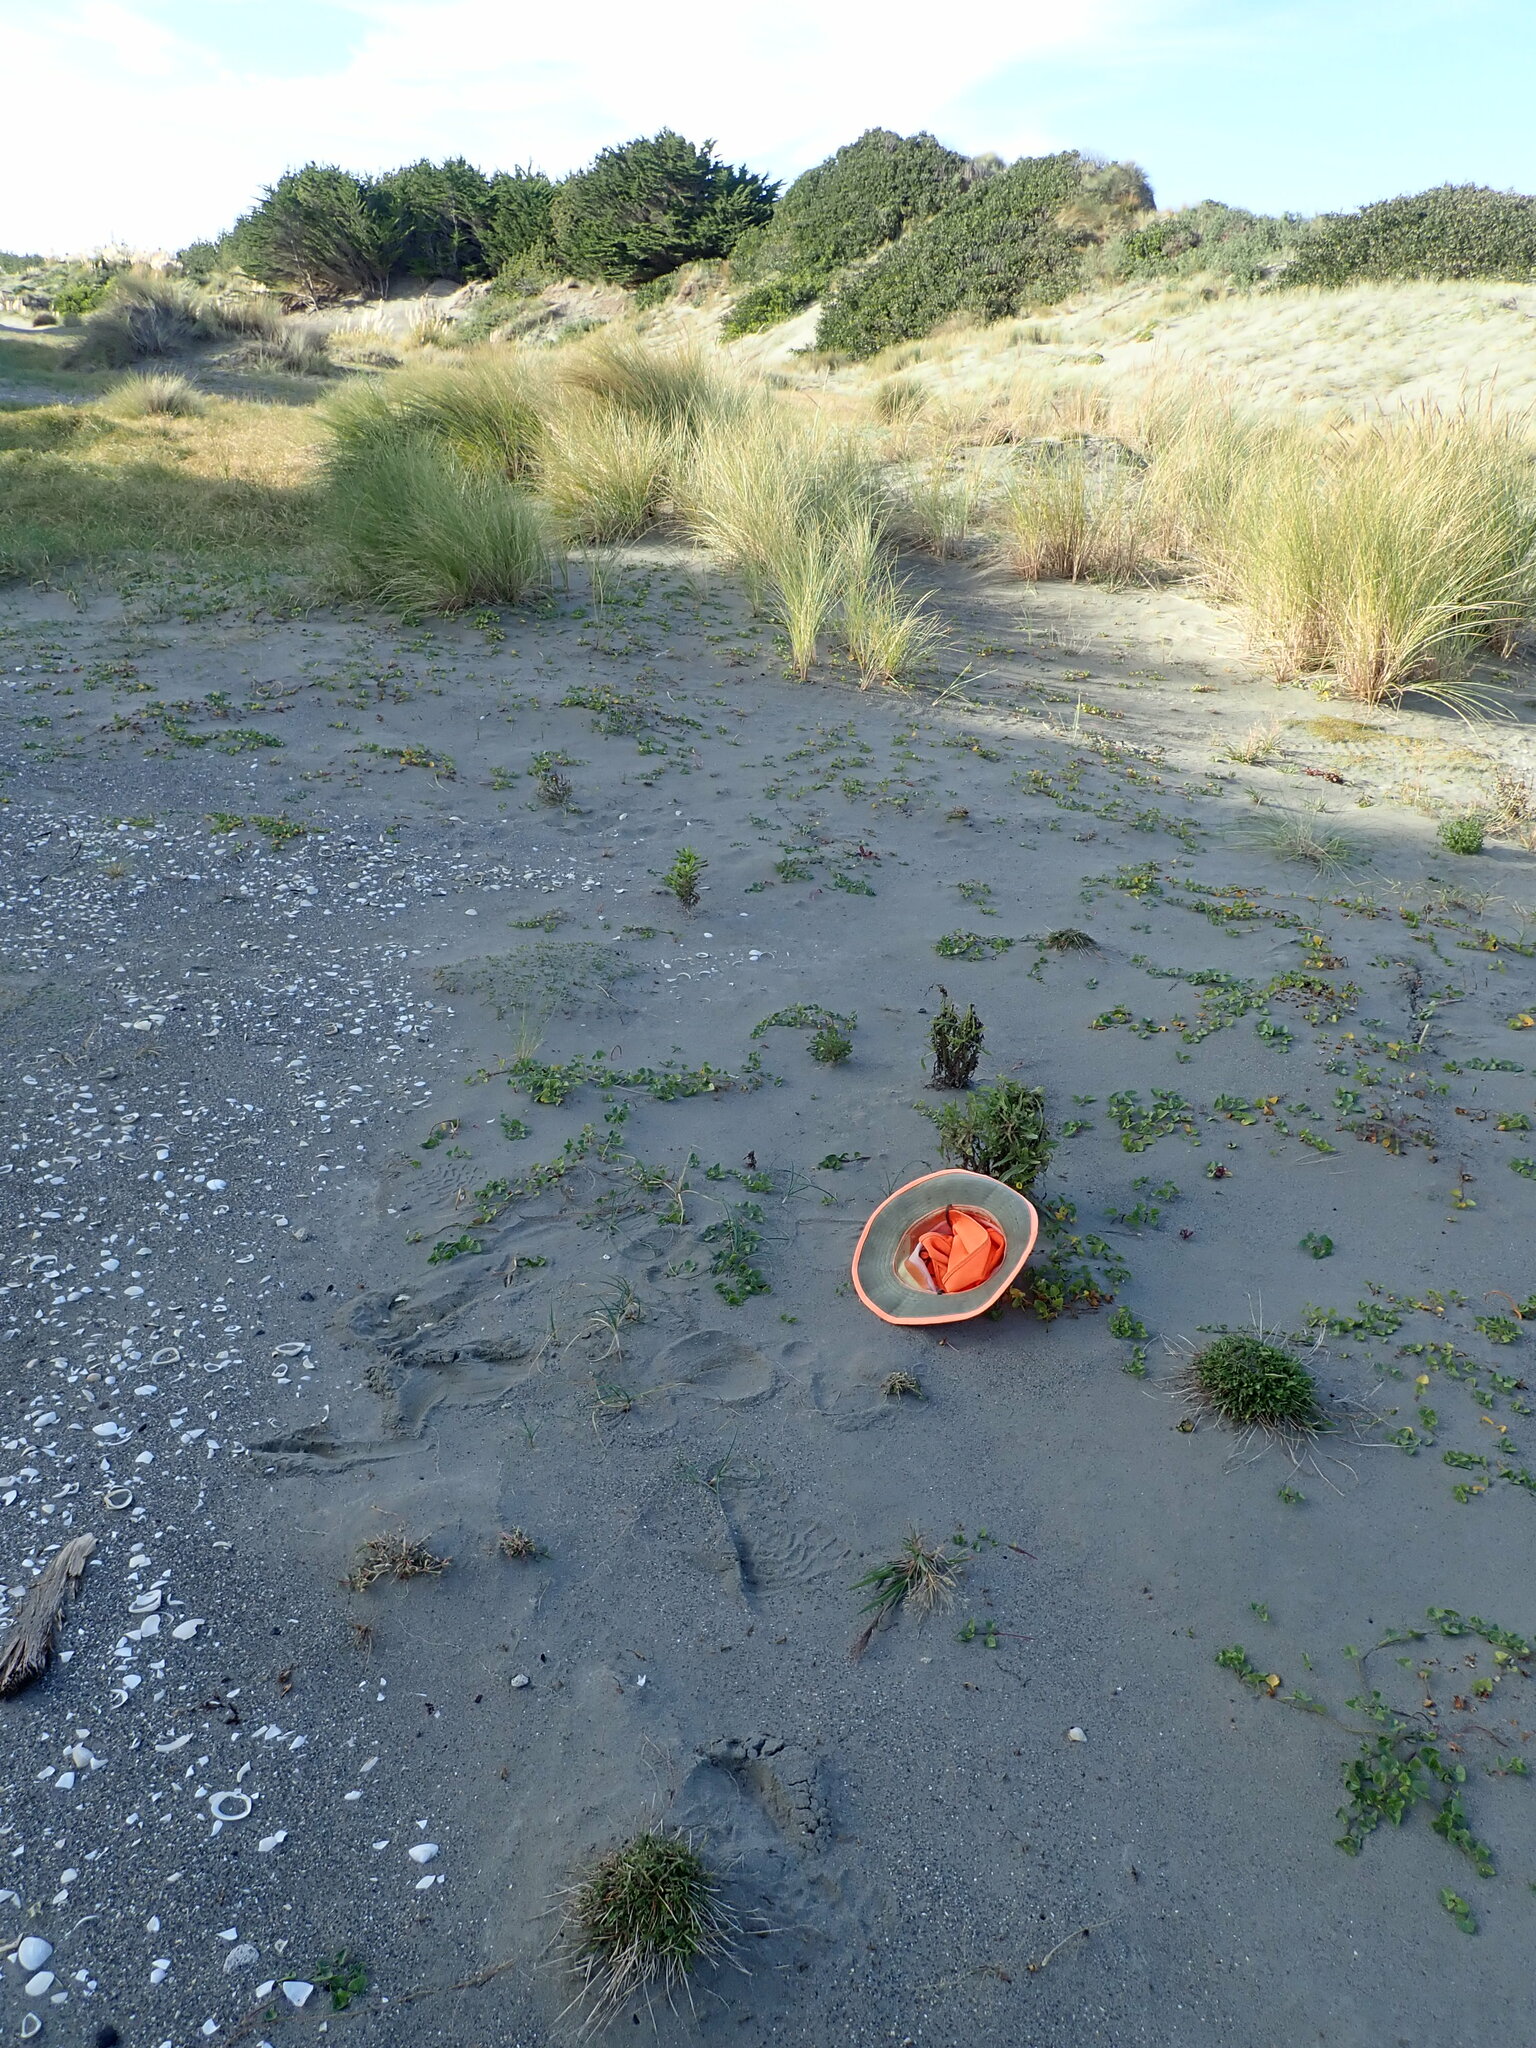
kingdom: Plantae
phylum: Tracheophyta
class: Magnoliopsida
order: Asterales
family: Asteraceae
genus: Sonchus
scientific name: Sonchus oleraceus
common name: Common sowthistle
